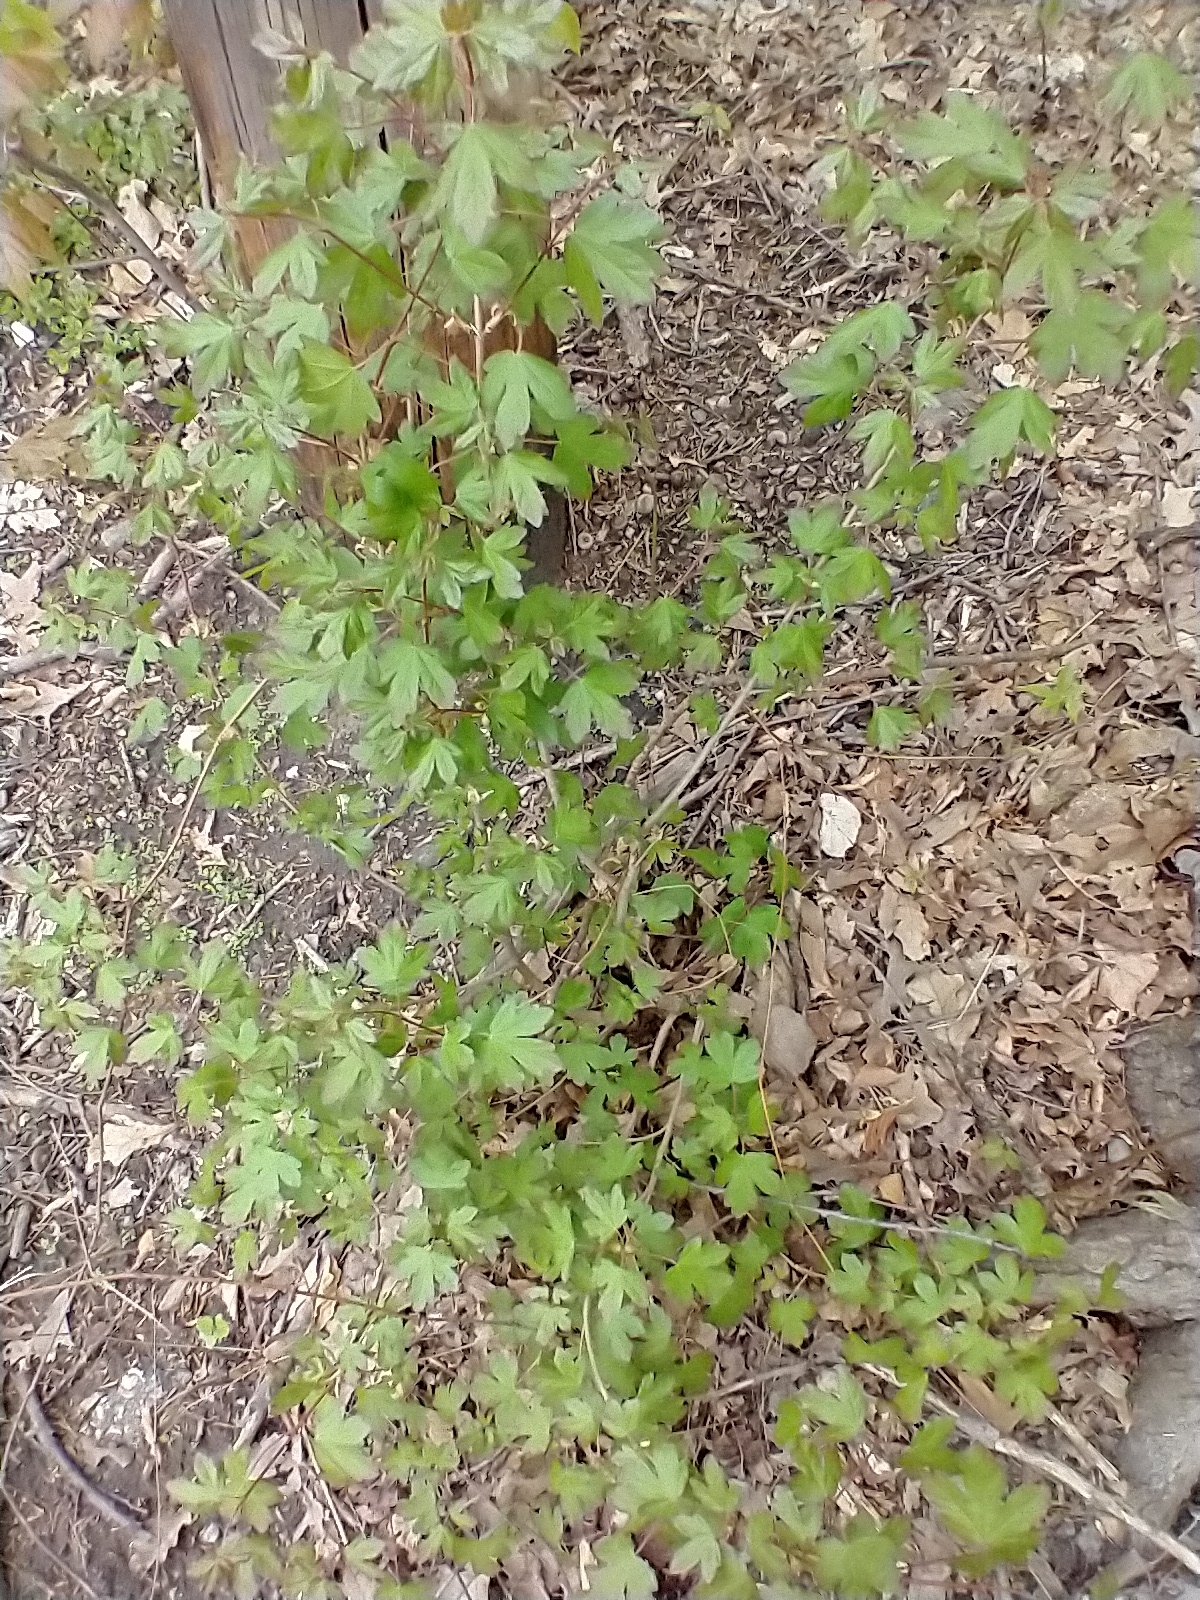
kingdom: Plantae
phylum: Tracheophyta
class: Magnoliopsida
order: Sapindales
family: Sapindaceae
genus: Acer
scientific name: Acer campestre
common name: Field maple
